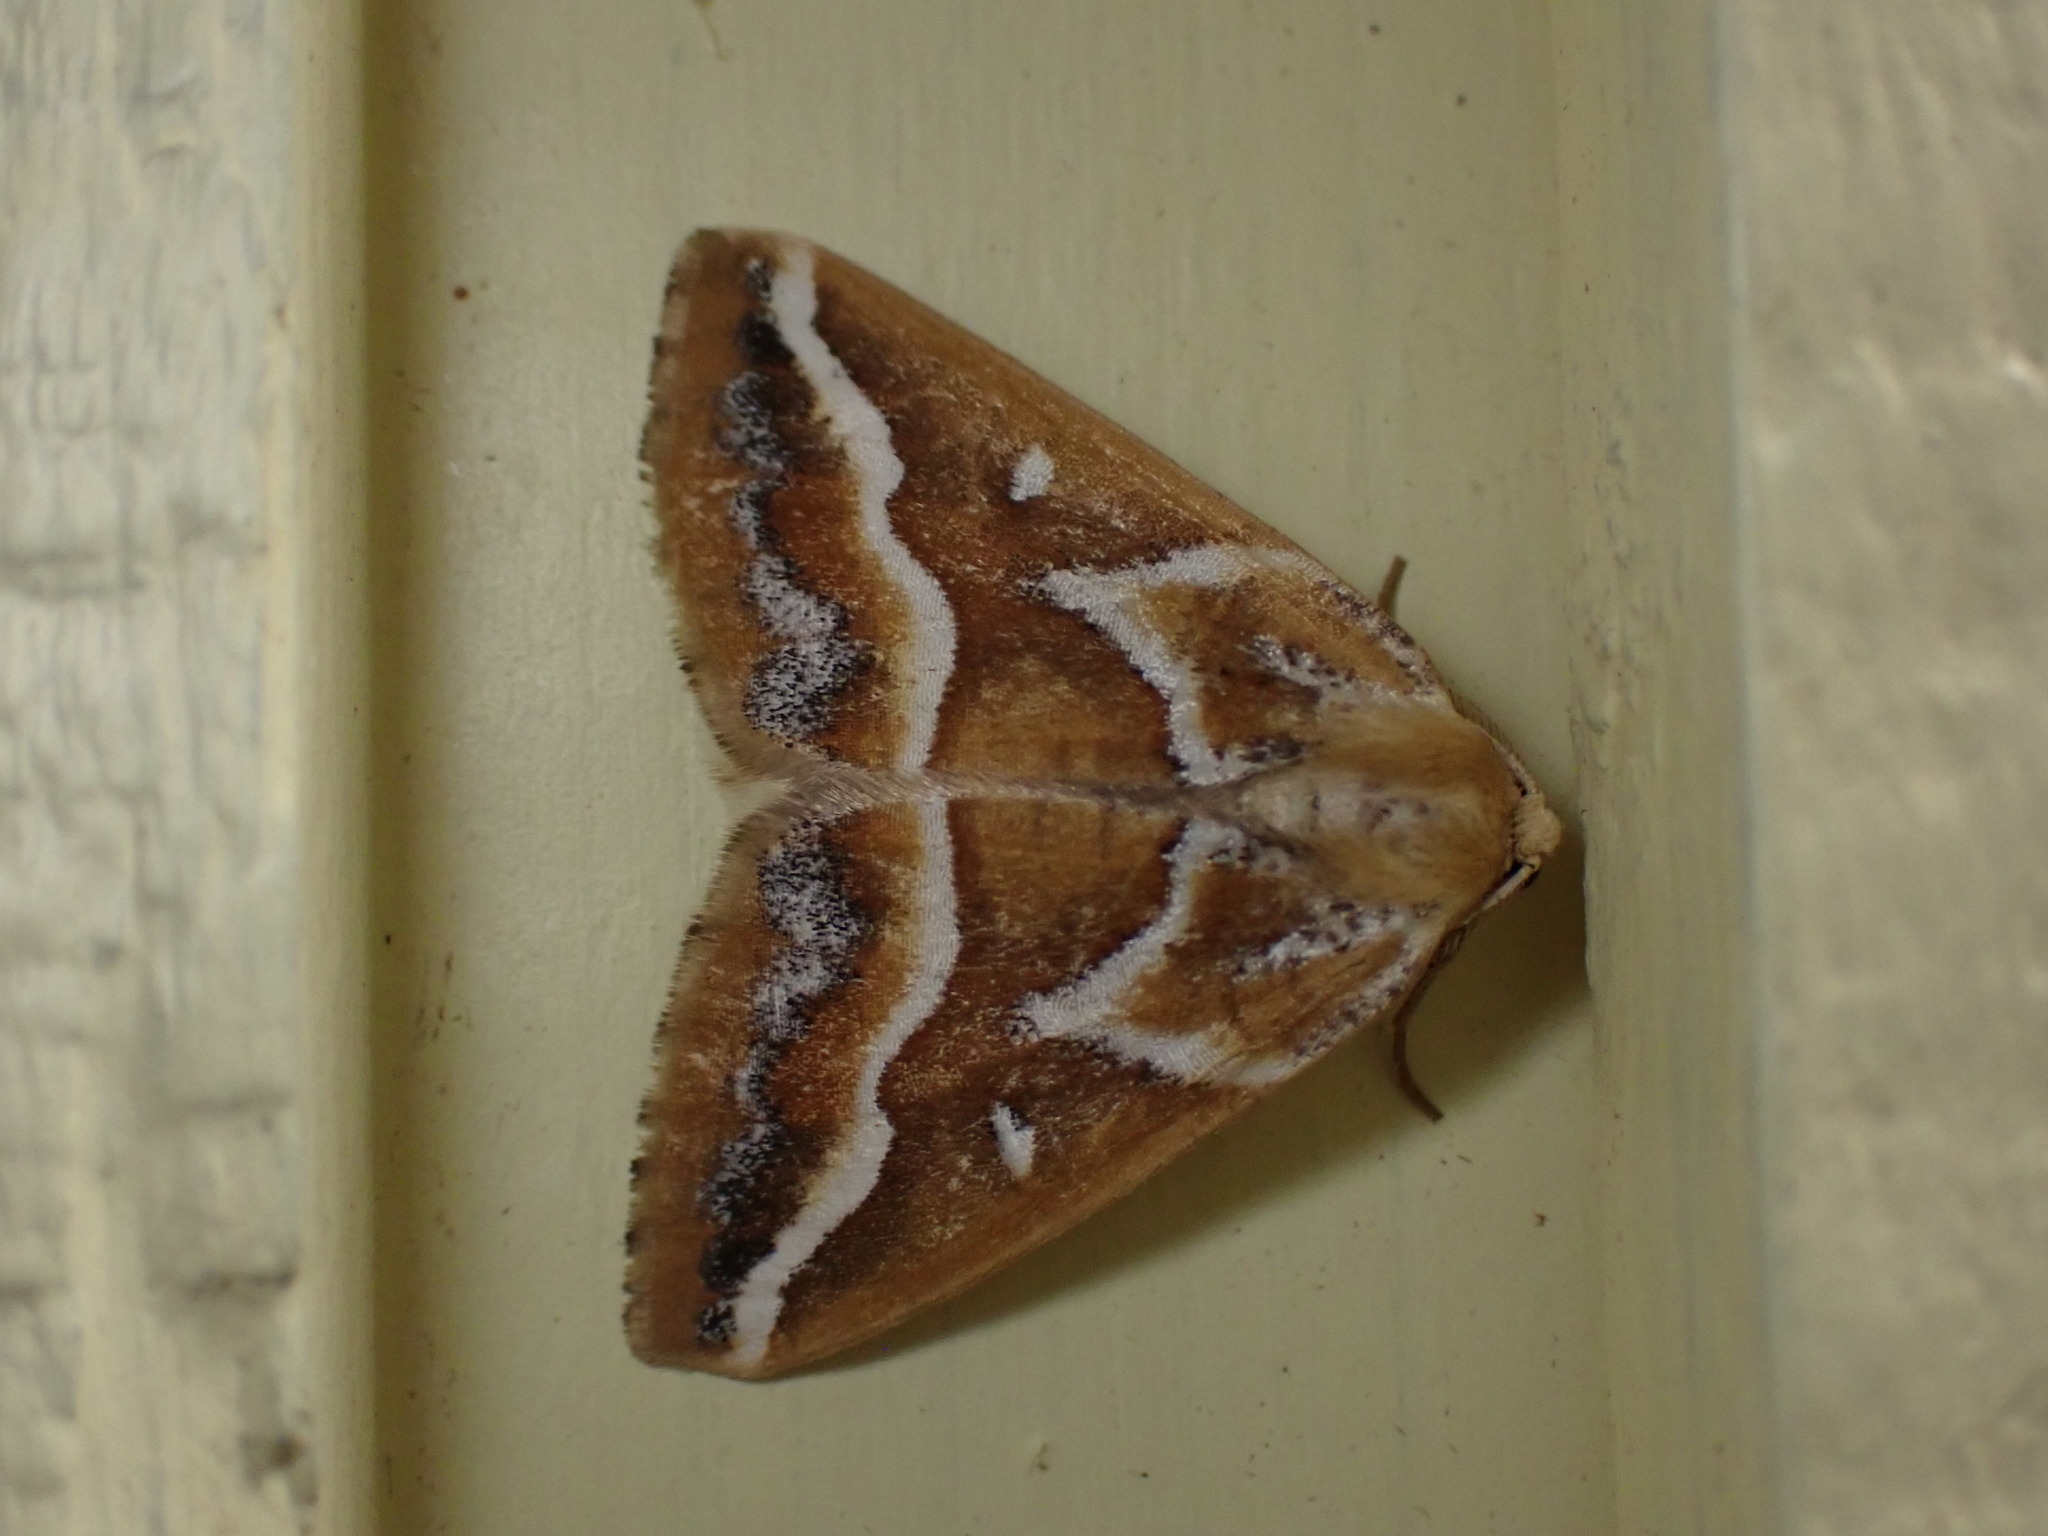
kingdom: Animalia
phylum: Arthropoda
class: Insecta
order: Lepidoptera
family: Geometridae
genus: Caripeta
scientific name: Caripeta angustiorata
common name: Brown pine looper
